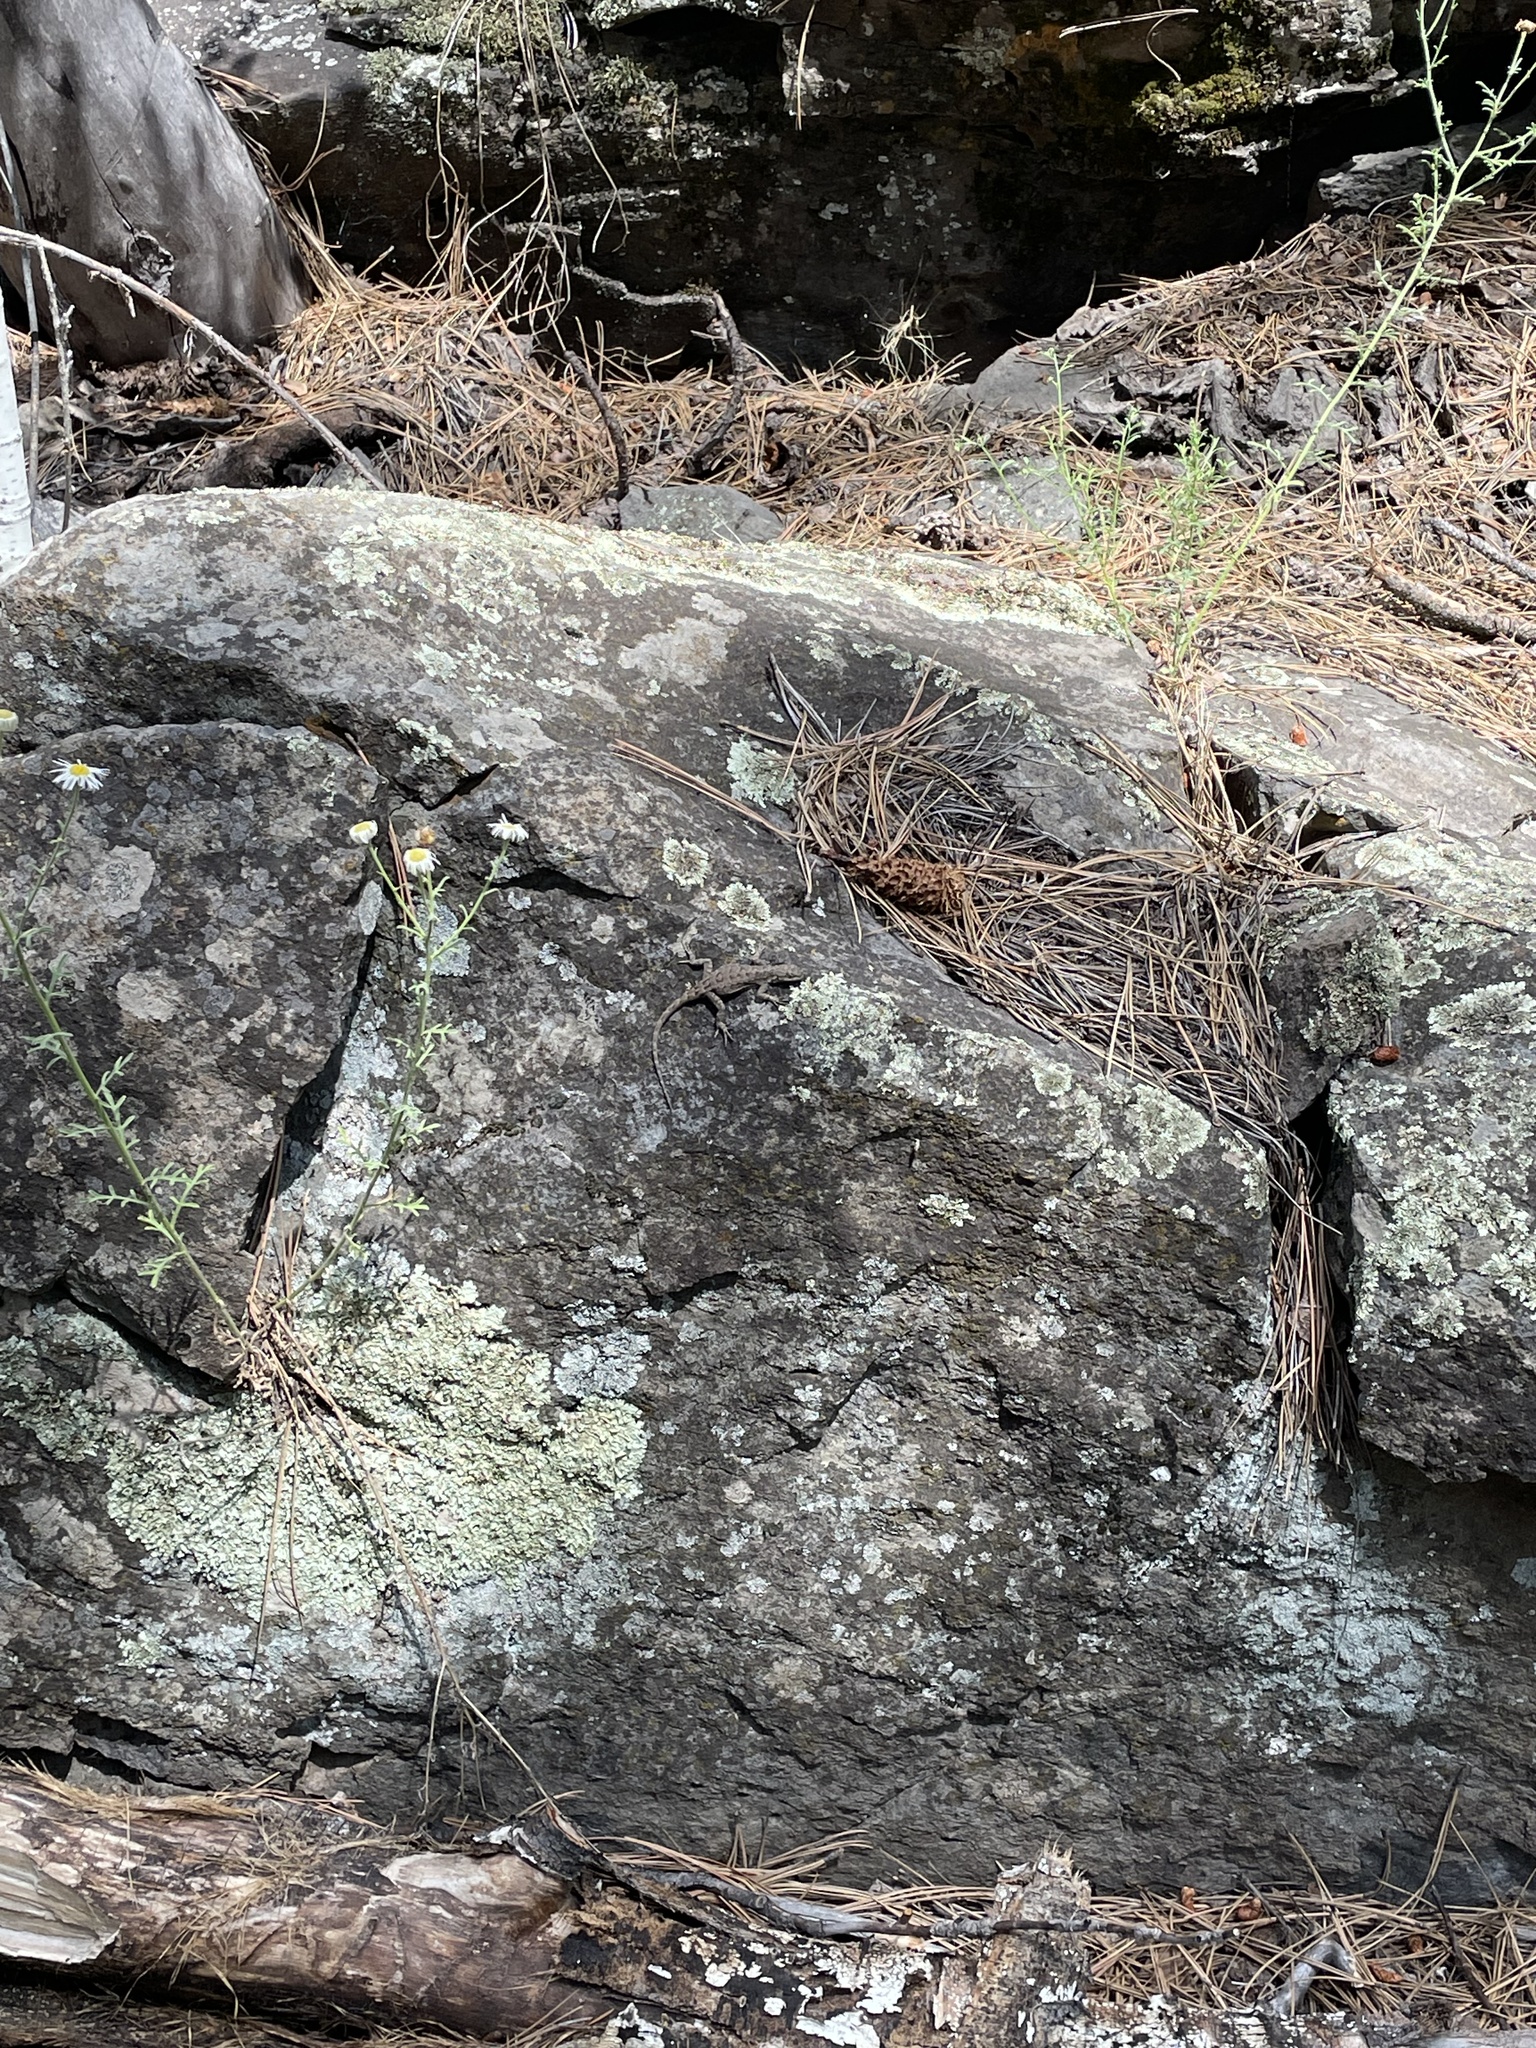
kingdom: Animalia
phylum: Chordata
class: Squamata
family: Phrynosomatidae
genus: Urosaurus
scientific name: Urosaurus ornatus
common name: Ornate tree lizard
